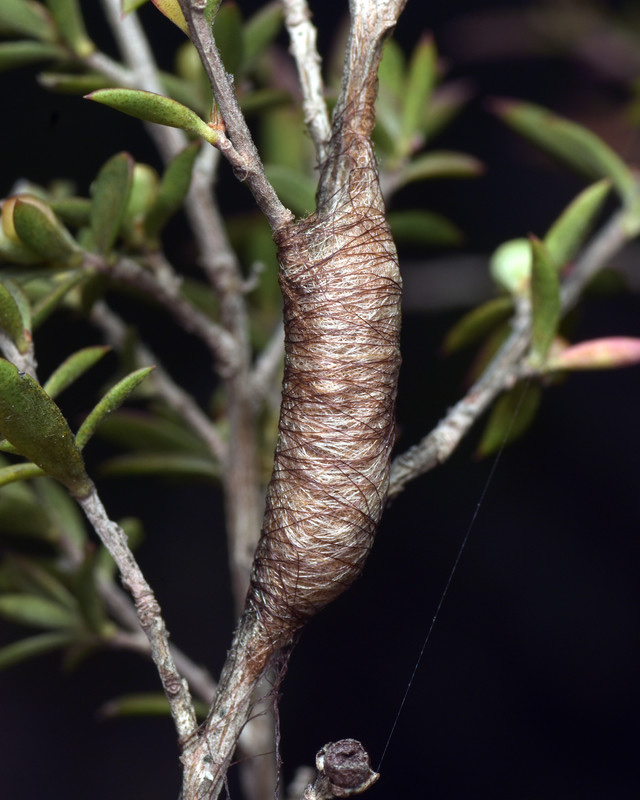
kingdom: Animalia
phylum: Arthropoda
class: Arachnida
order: Araneae
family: Araneidae
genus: Austracantha
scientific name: Austracantha minax
